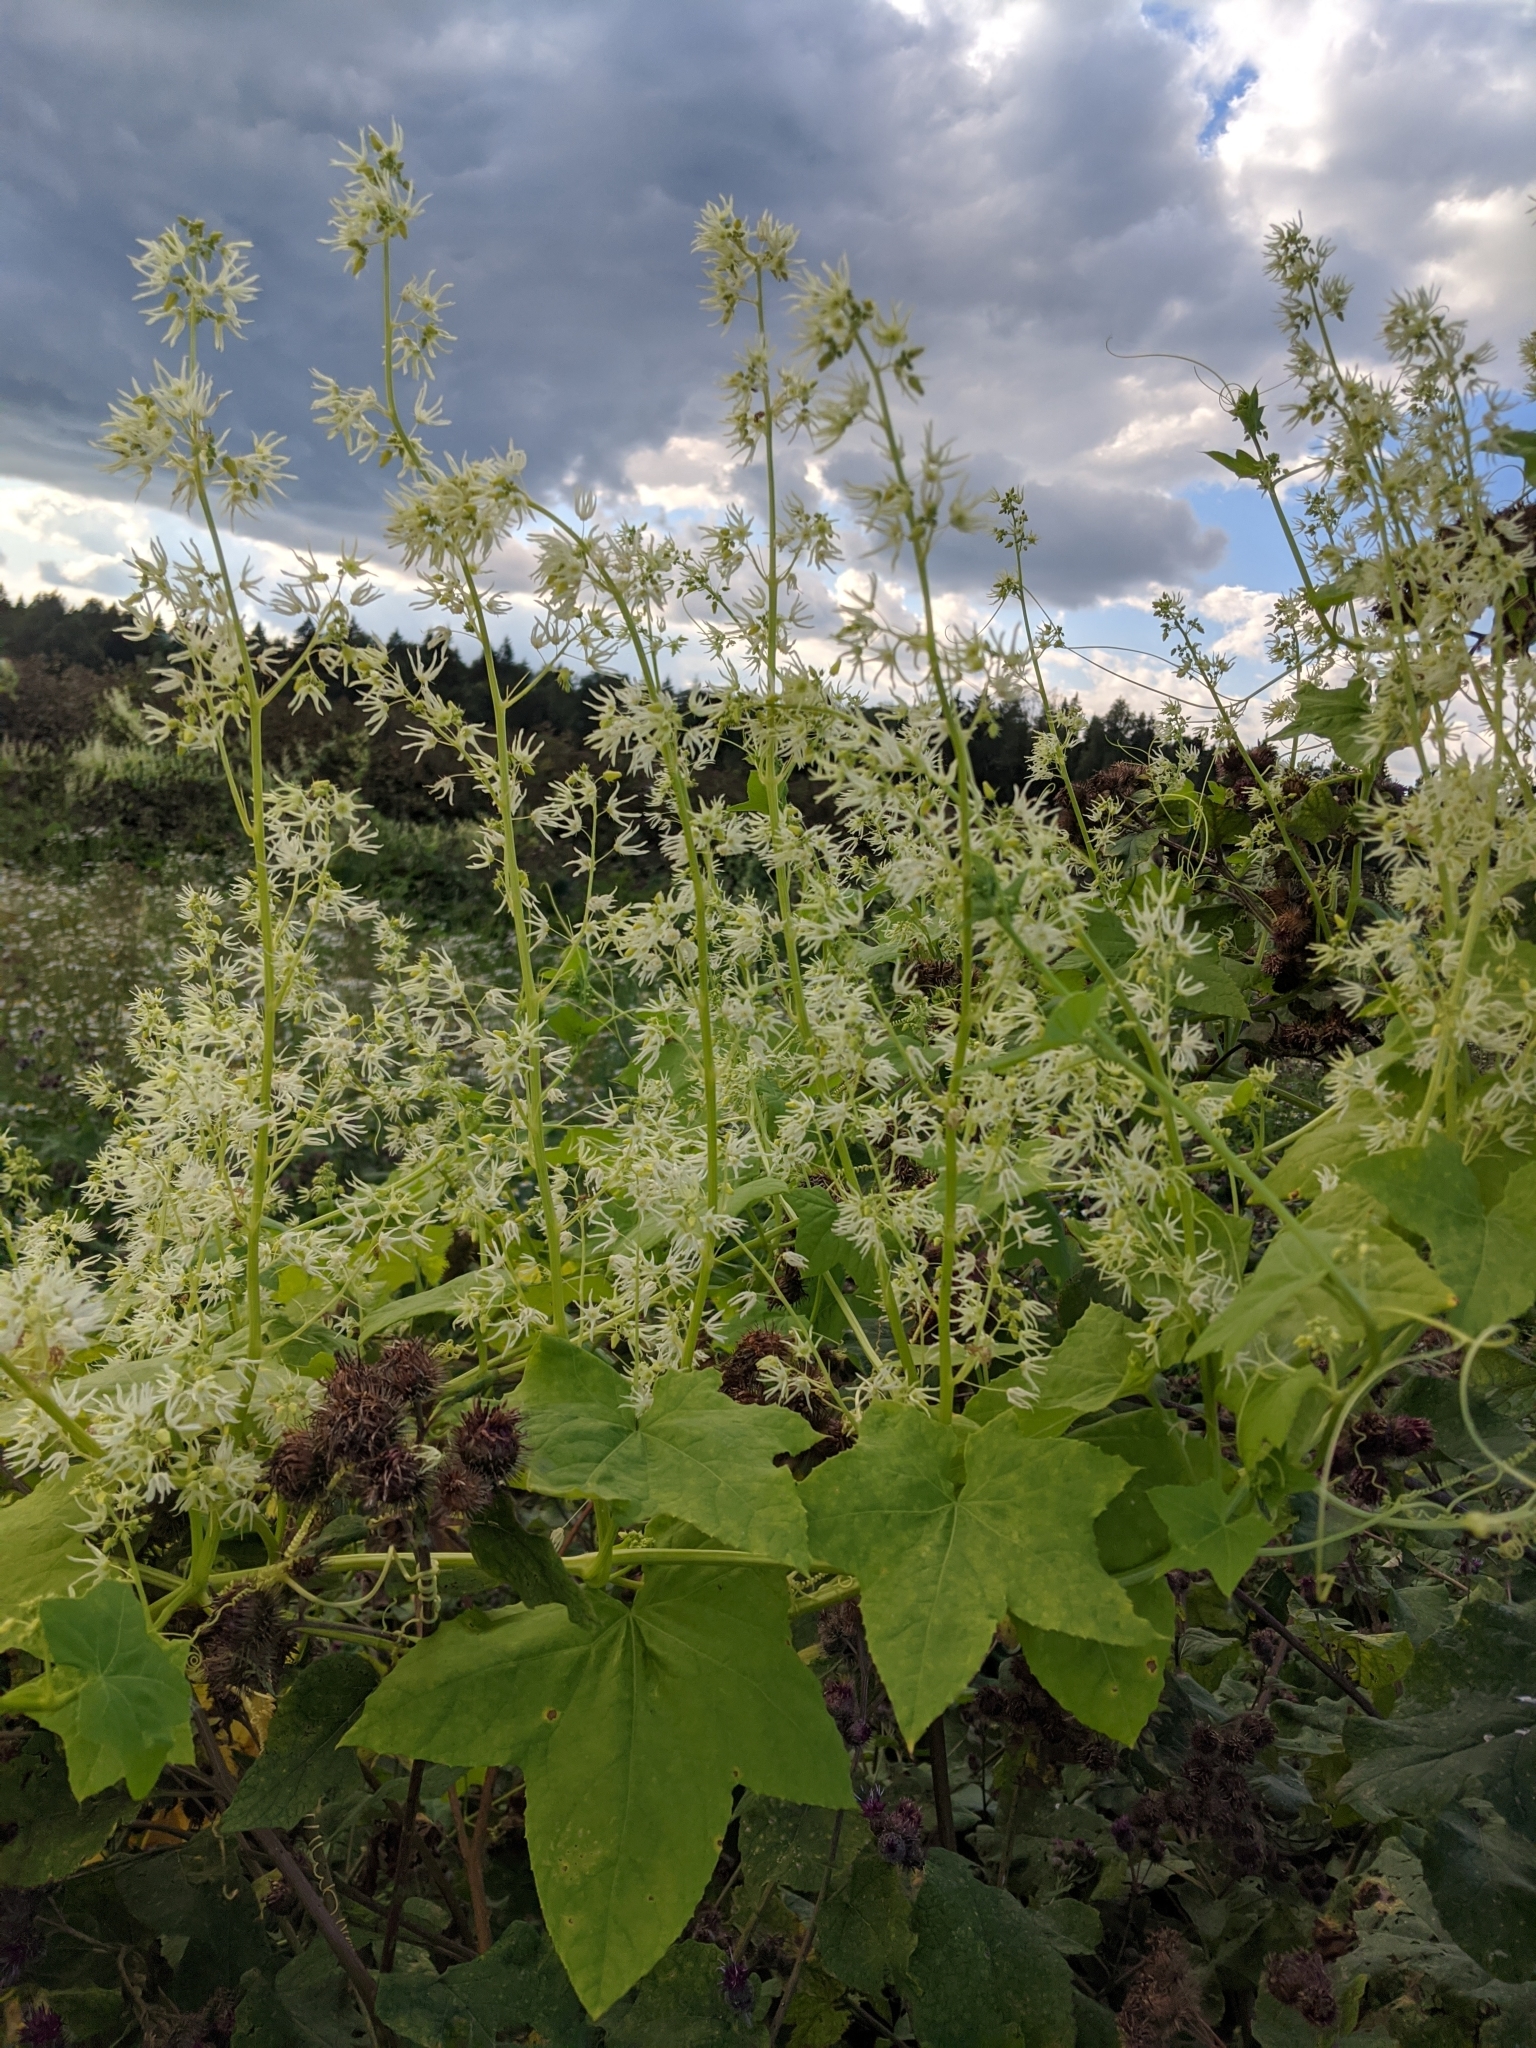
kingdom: Plantae
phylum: Tracheophyta
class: Magnoliopsida
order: Cucurbitales
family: Cucurbitaceae
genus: Echinocystis
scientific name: Echinocystis lobata
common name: Wild cucumber
